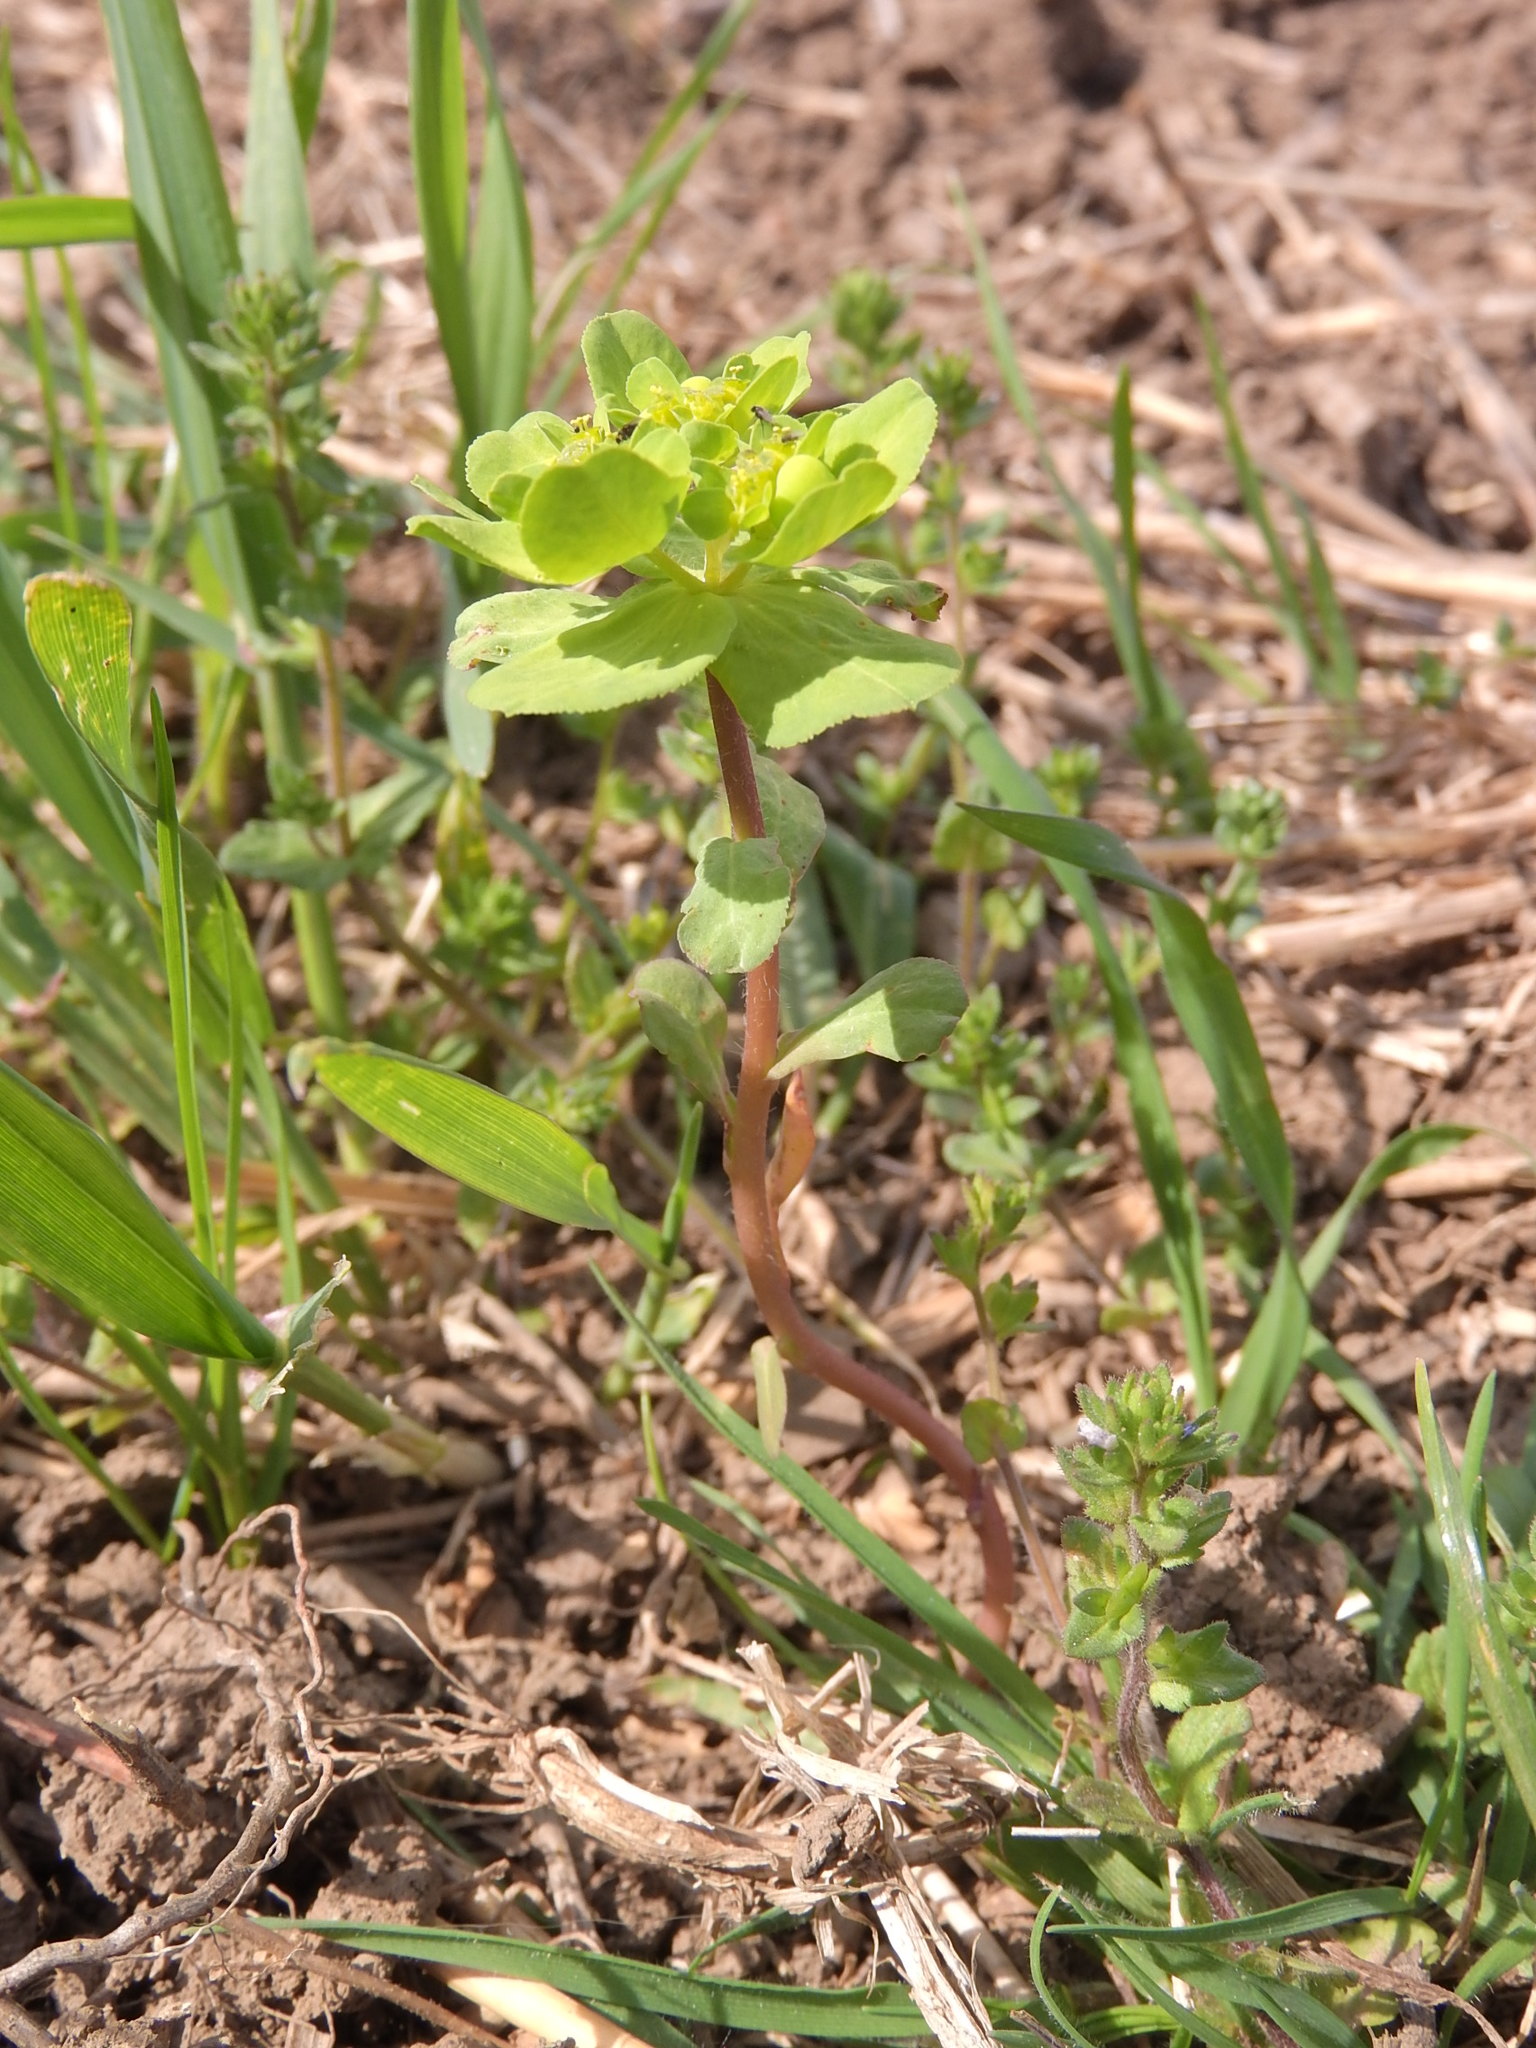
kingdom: Plantae
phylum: Tracheophyta
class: Magnoliopsida
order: Malpighiales
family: Euphorbiaceae
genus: Euphorbia
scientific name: Euphorbia helioscopia
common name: Sun spurge
